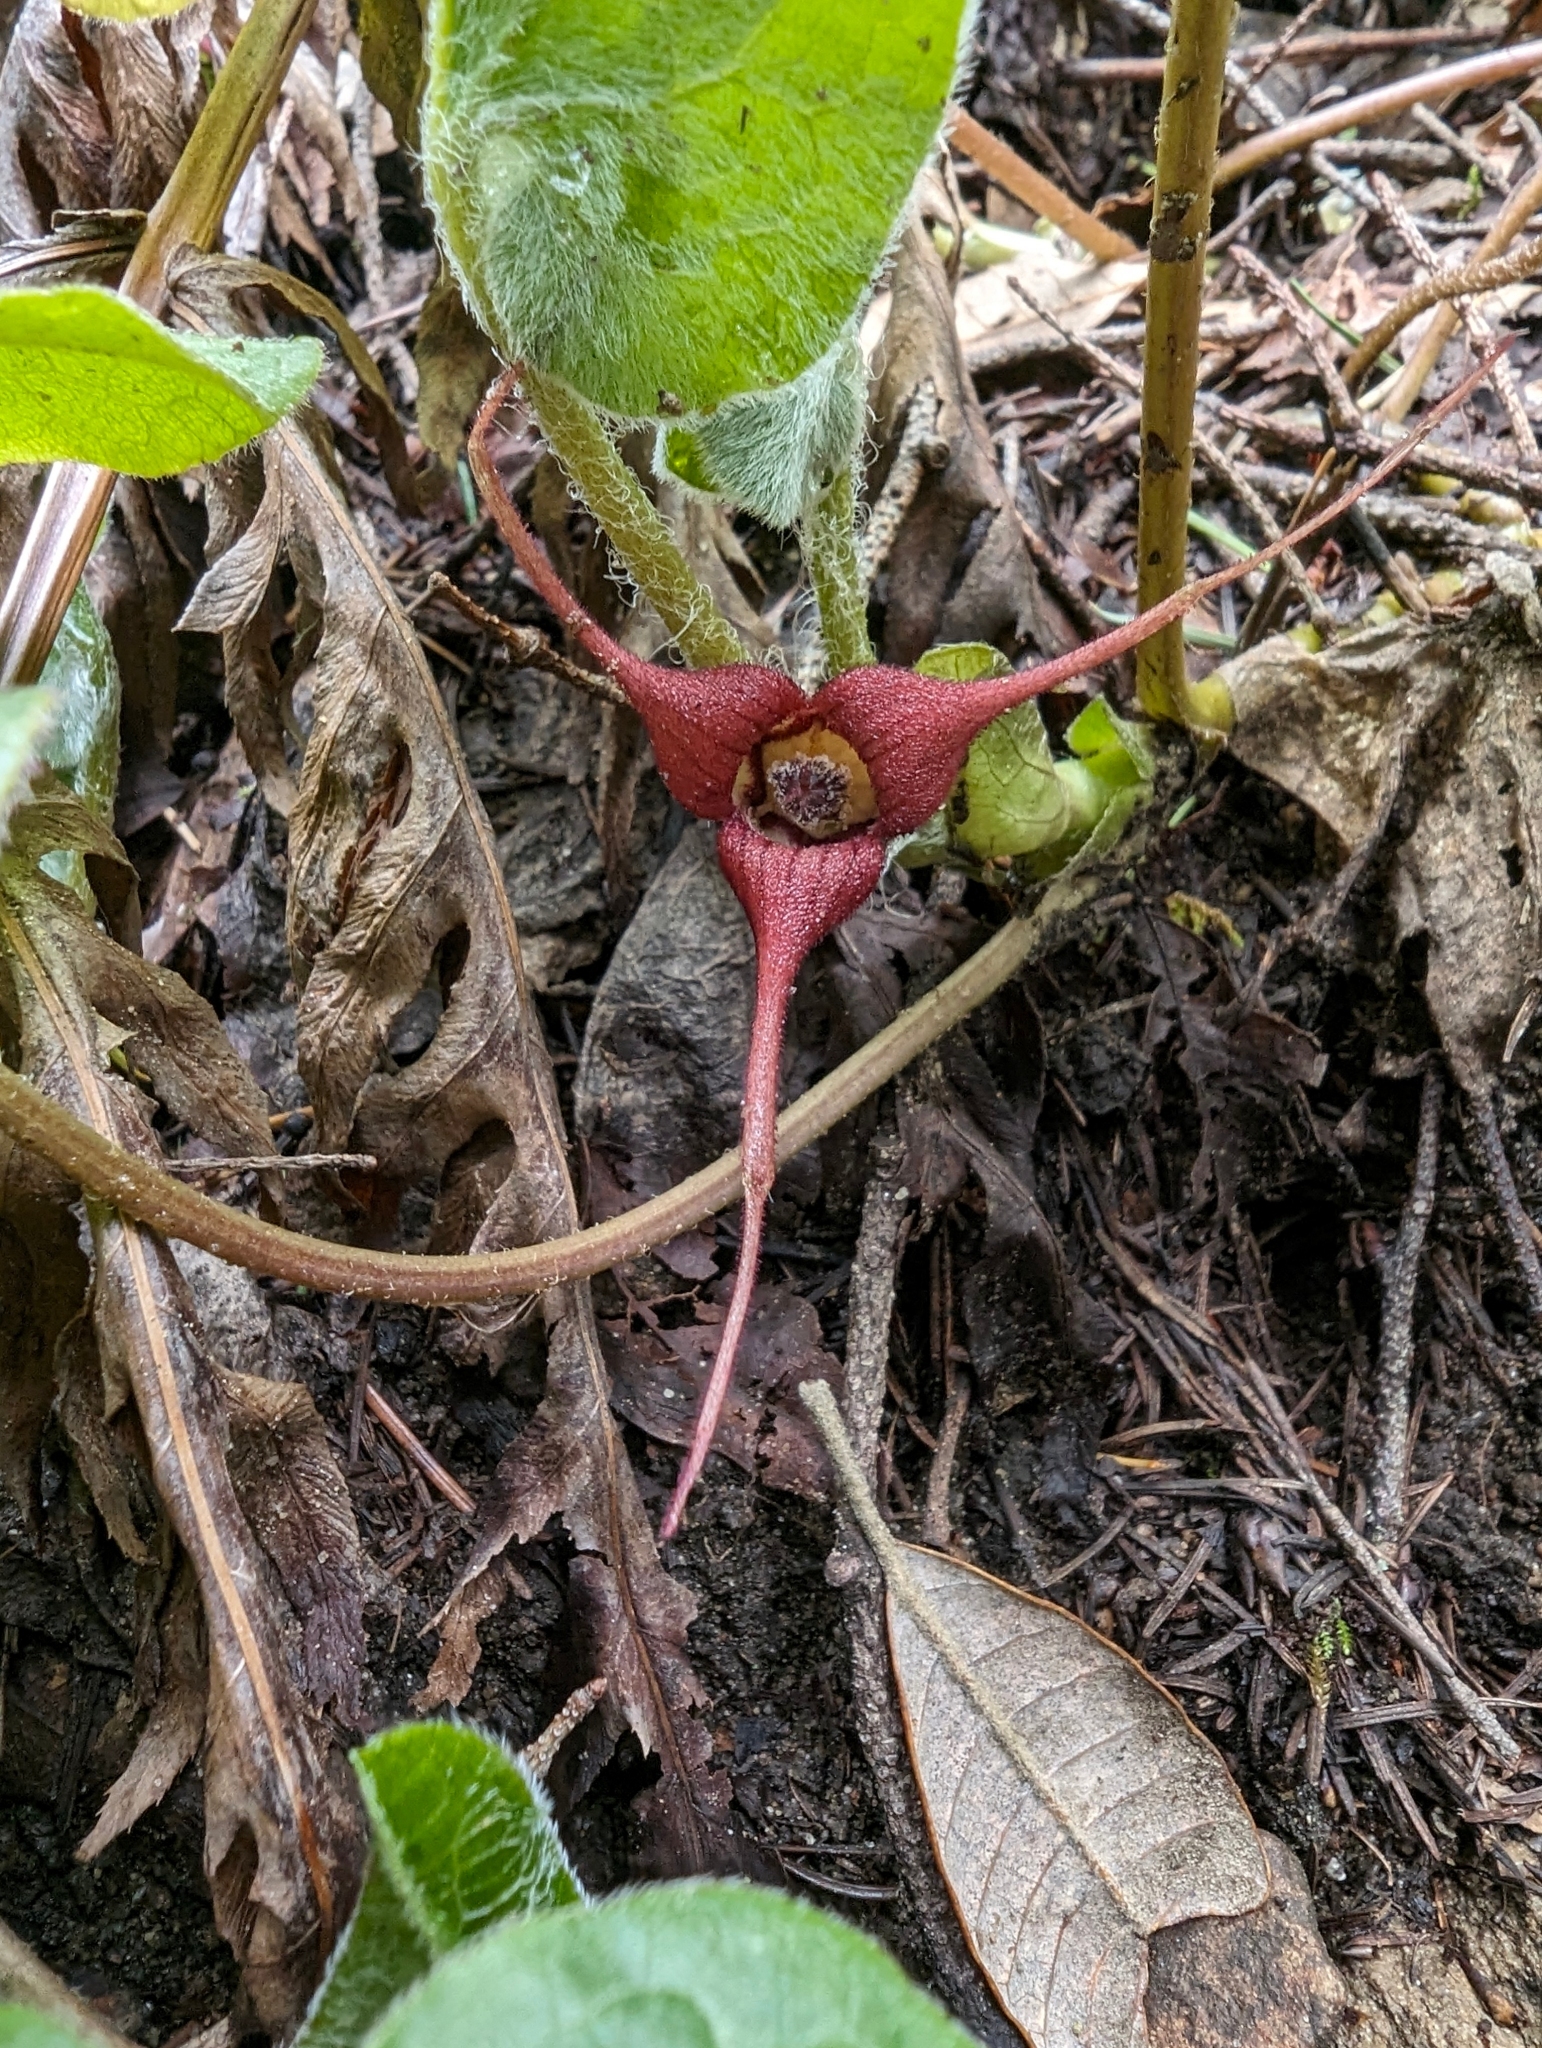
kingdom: Plantae
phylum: Tracheophyta
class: Magnoliopsida
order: Piperales
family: Aristolochiaceae
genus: Asarum
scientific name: Asarum caudatum
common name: Wild ginger
